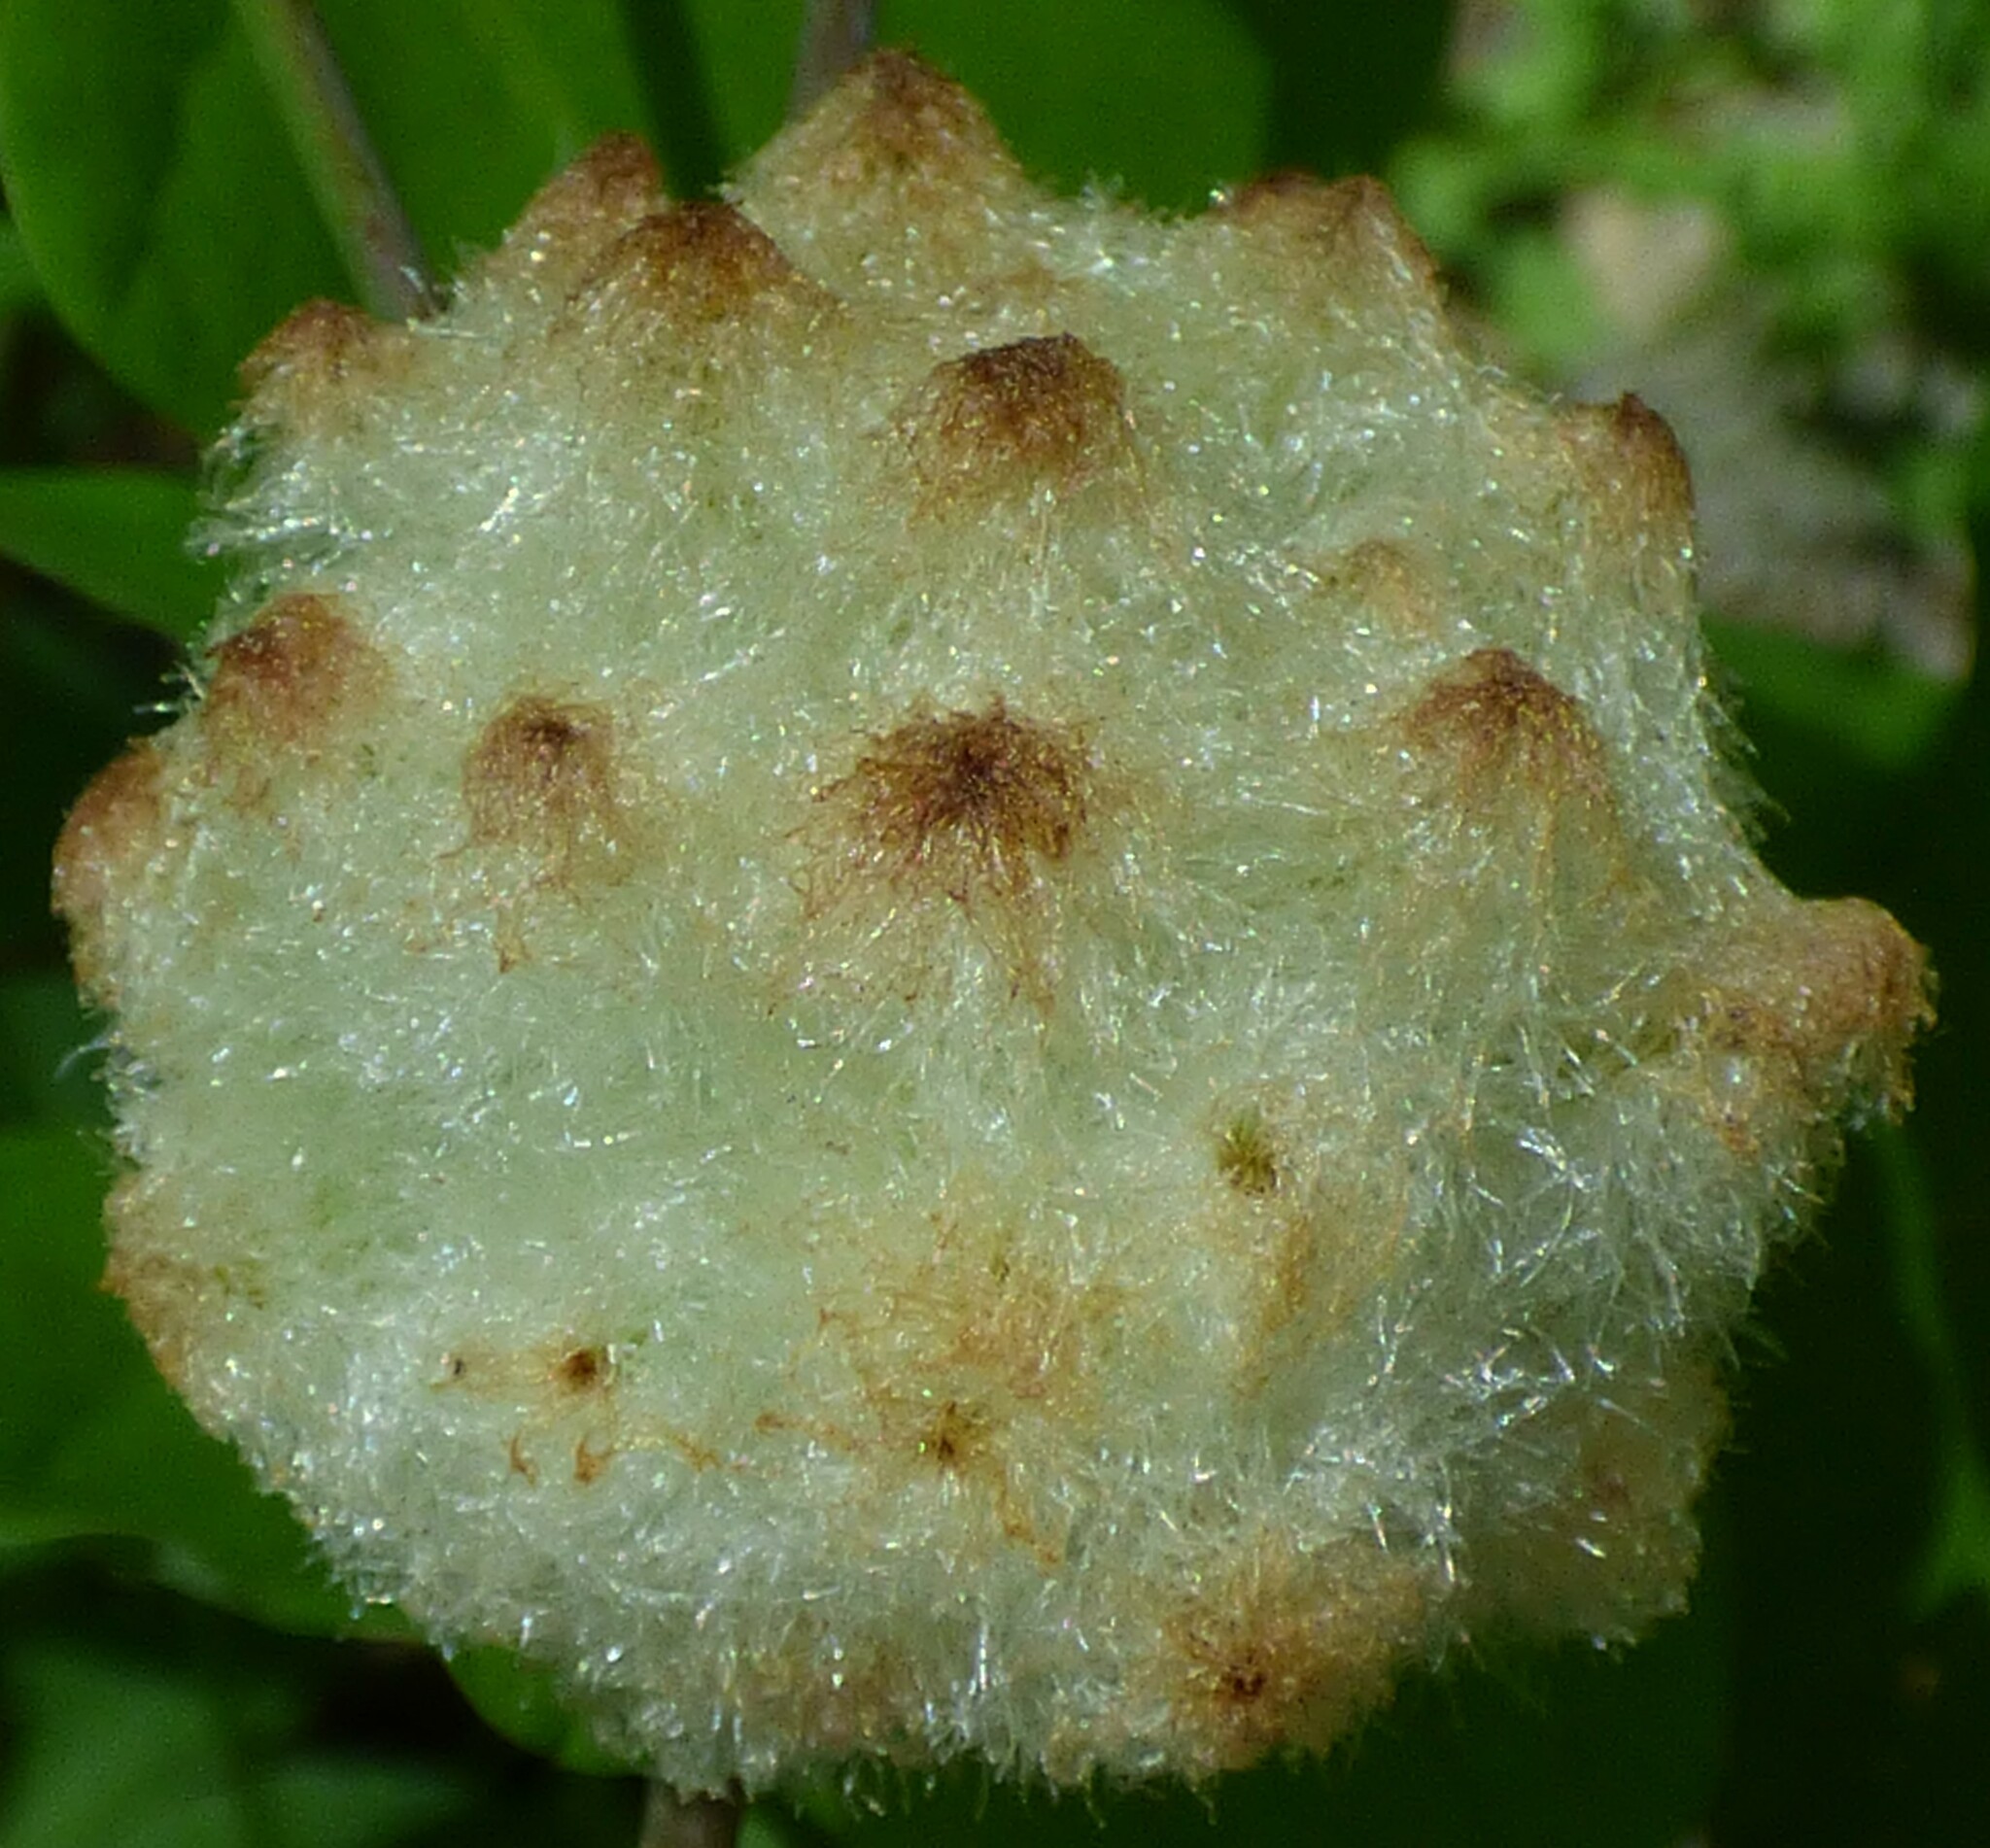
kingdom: Animalia
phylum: Arthropoda
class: Insecta
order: Hymenoptera
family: Cynipidae
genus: Callirhytis
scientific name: Callirhytis
